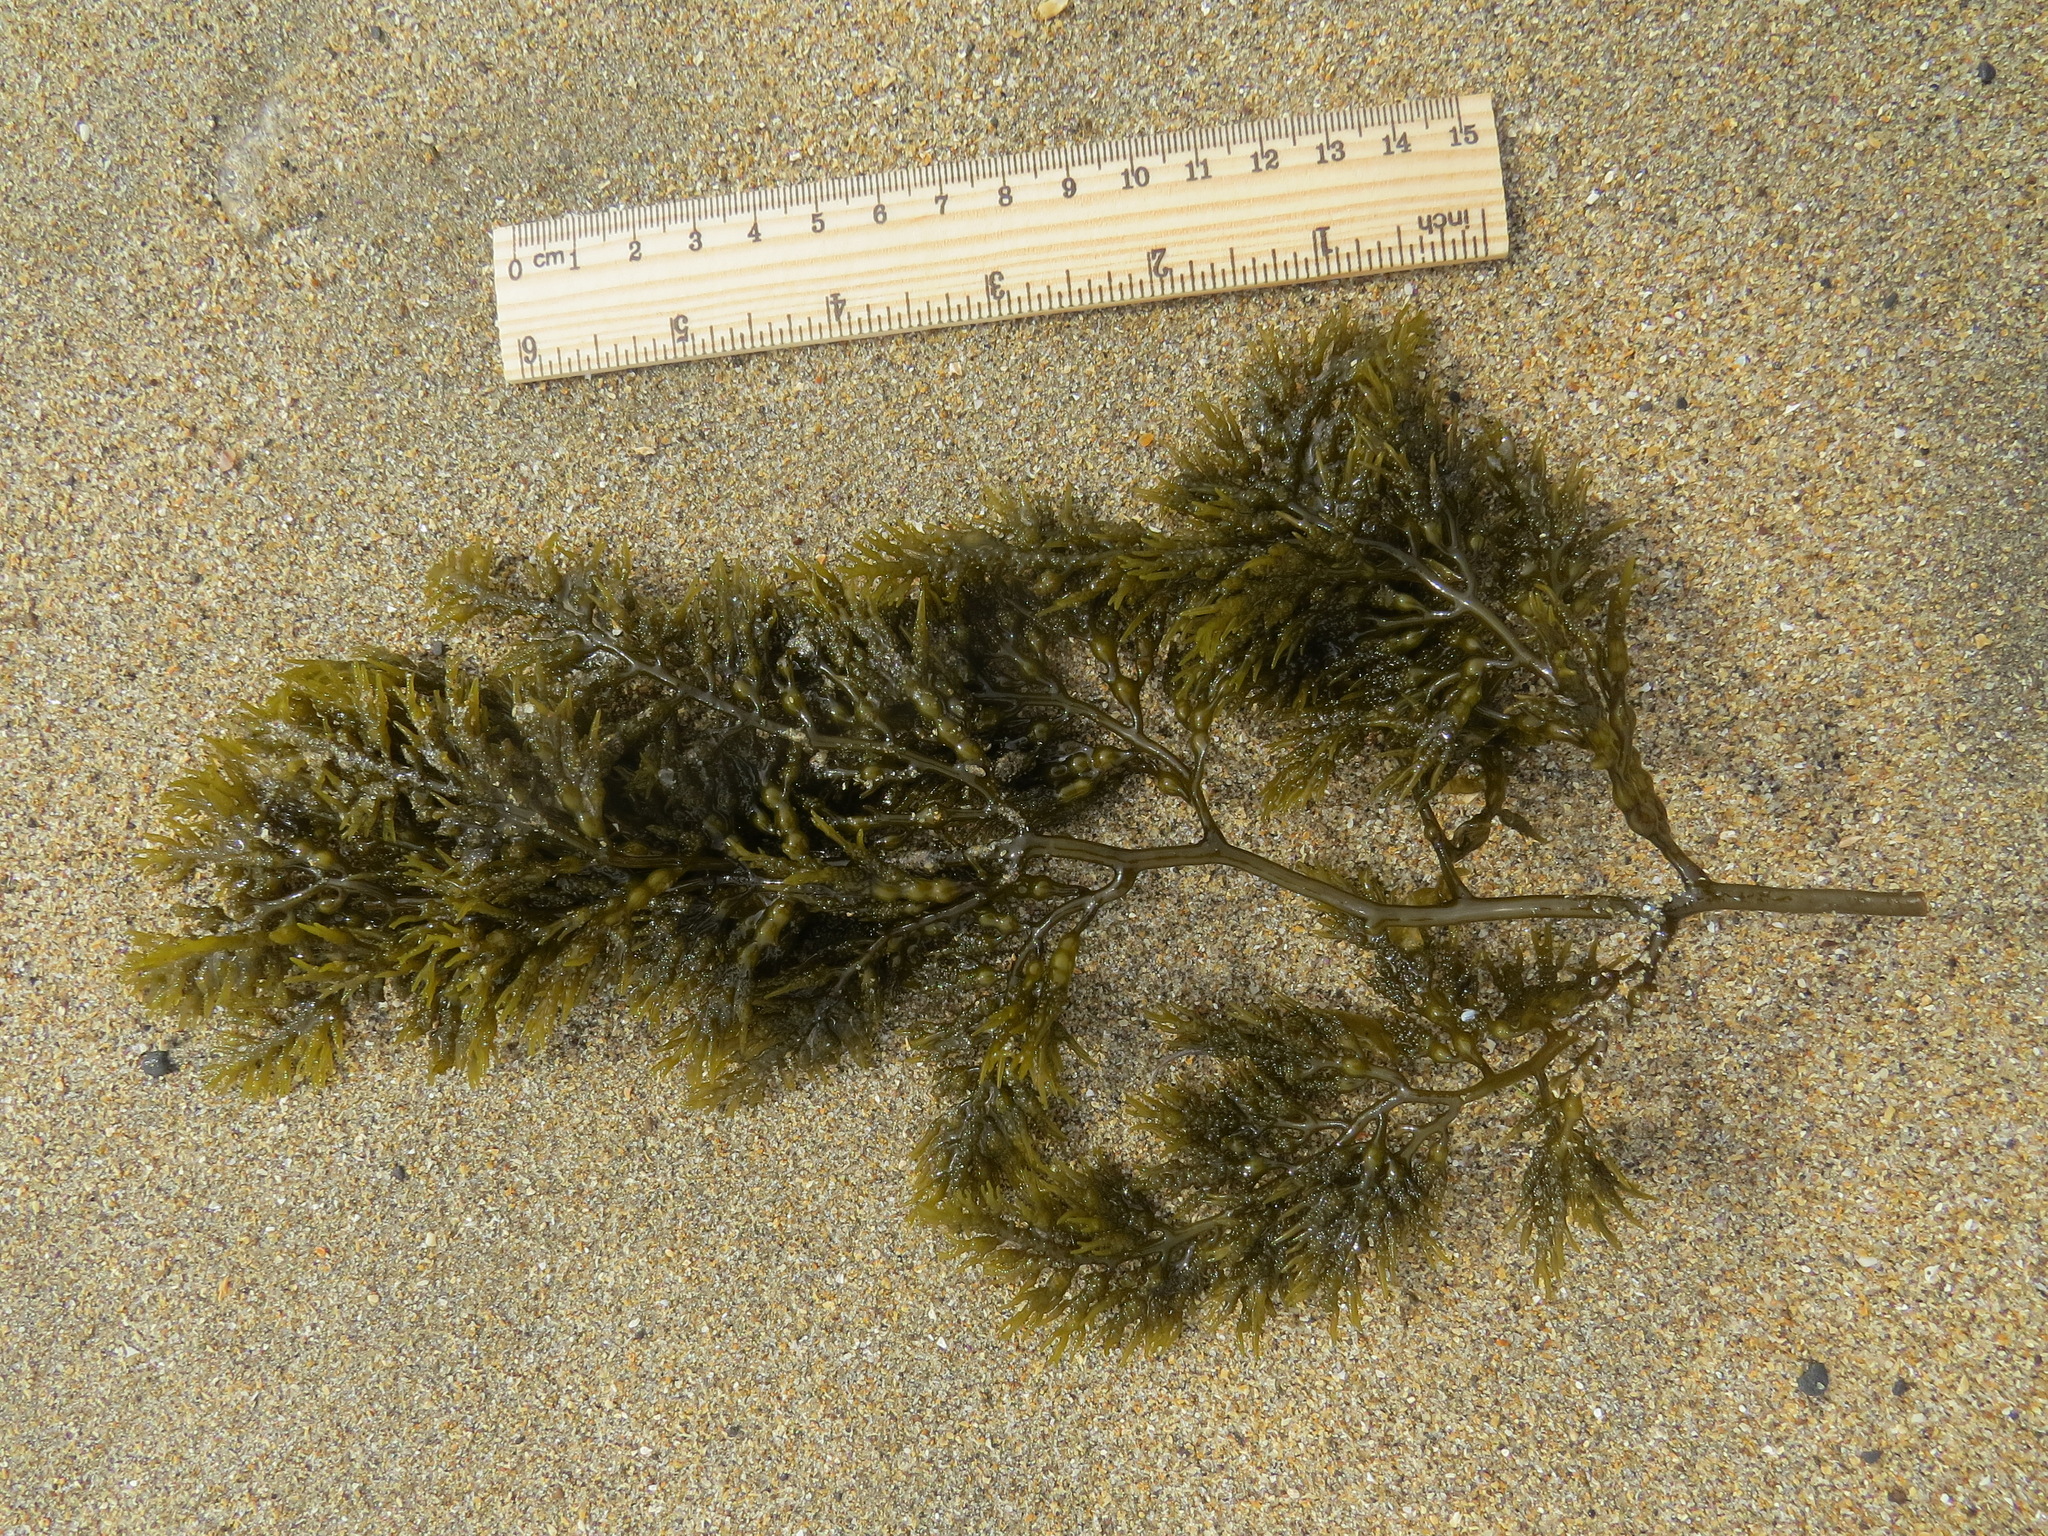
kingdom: Chromista
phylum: Ochrophyta
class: Phaeophyceae
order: Fucales
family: Sargassaceae
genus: Stephanocystis
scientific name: Stephanocystis
